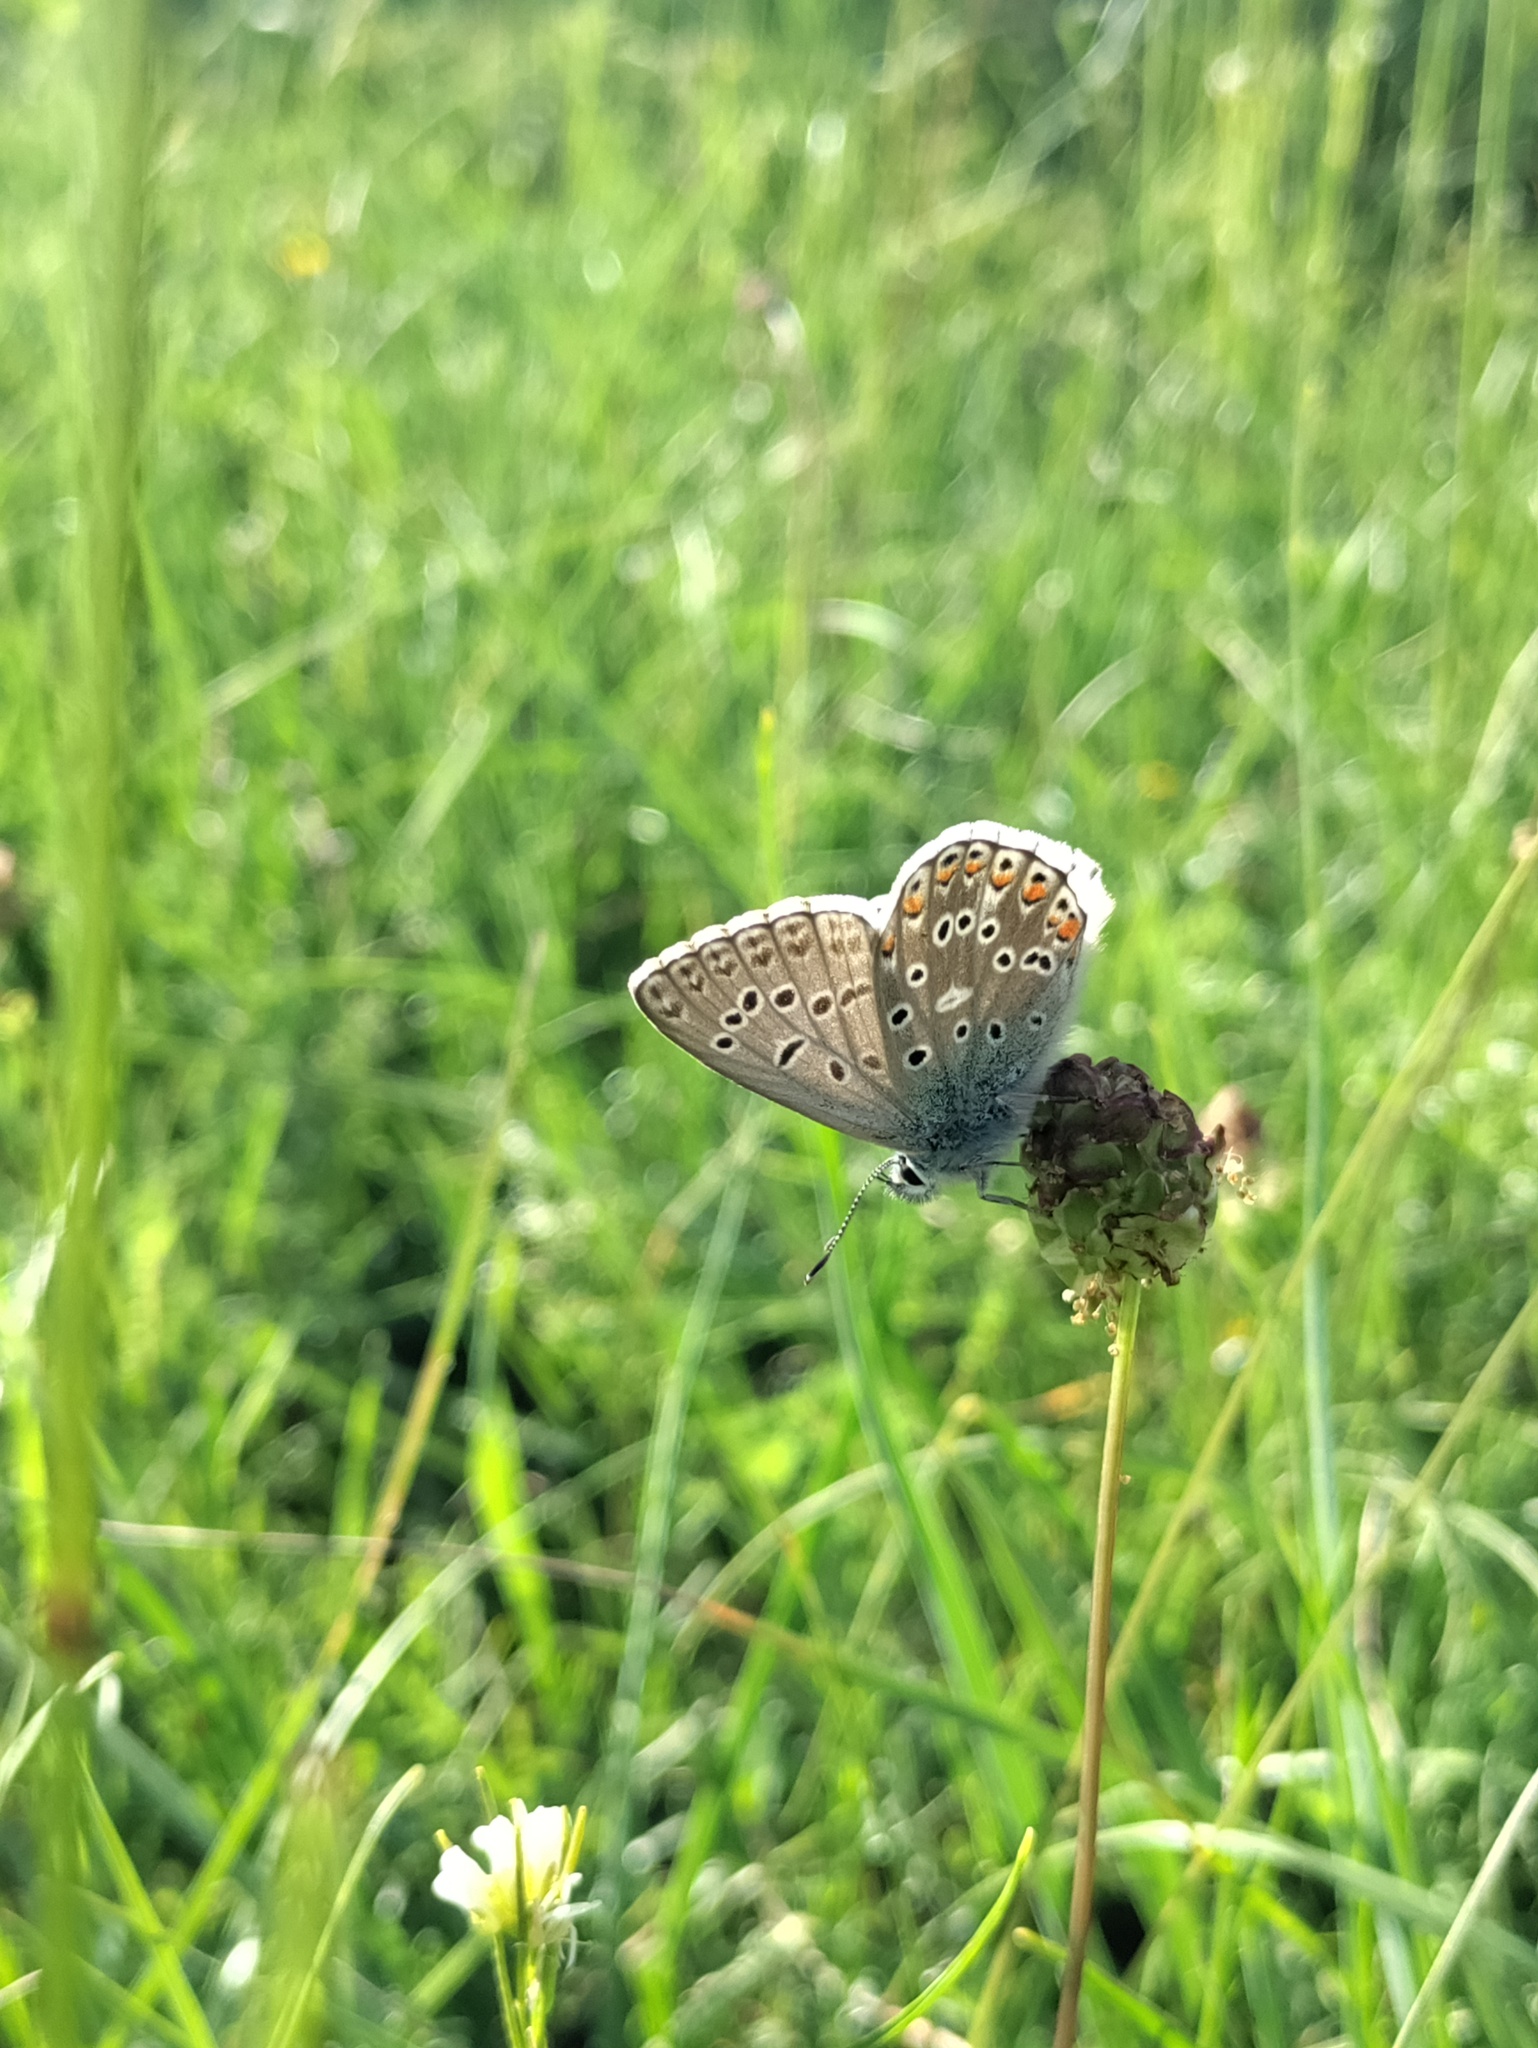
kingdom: Animalia
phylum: Arthropoda
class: Insecta
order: Lepidoptera
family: Lycaenidae
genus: Lysandra
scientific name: Lysandra bellargus
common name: Adonis blue
